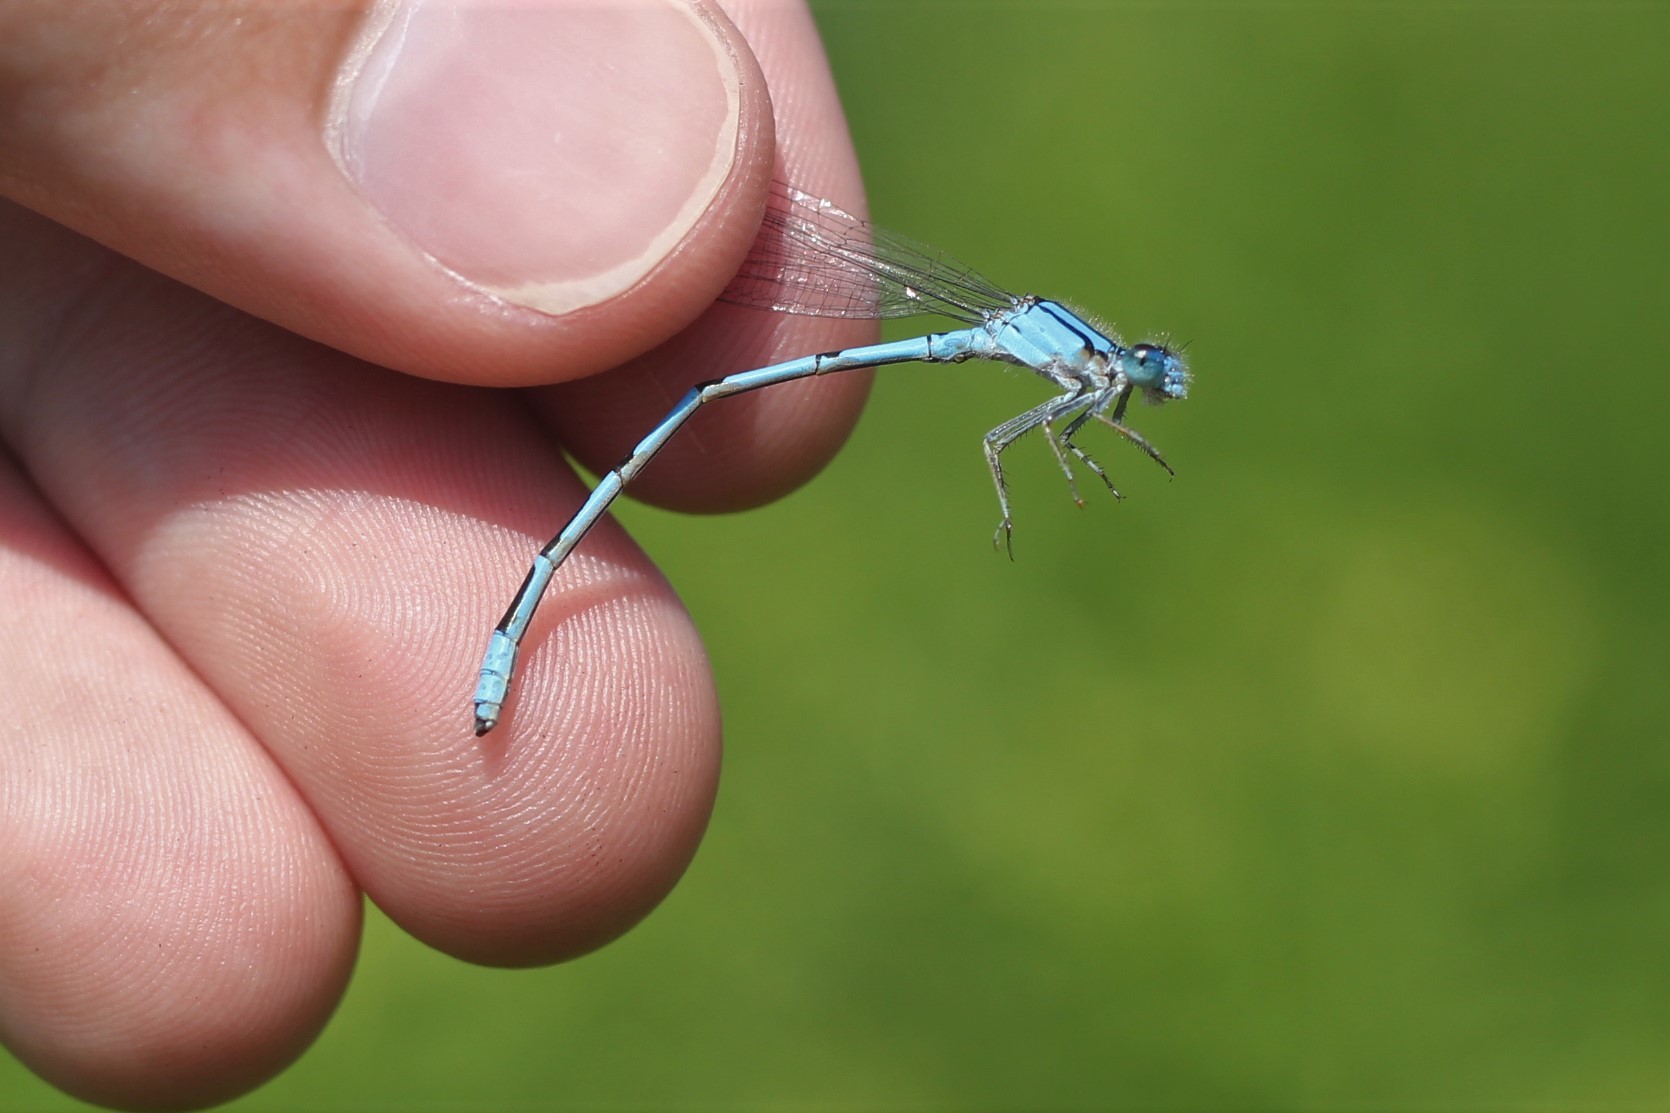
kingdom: Animalia
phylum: Arthropoda
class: Insecta
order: Odonata
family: Coenagrionidae
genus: Enallagma
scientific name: Enallagma civile
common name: Damselfly
